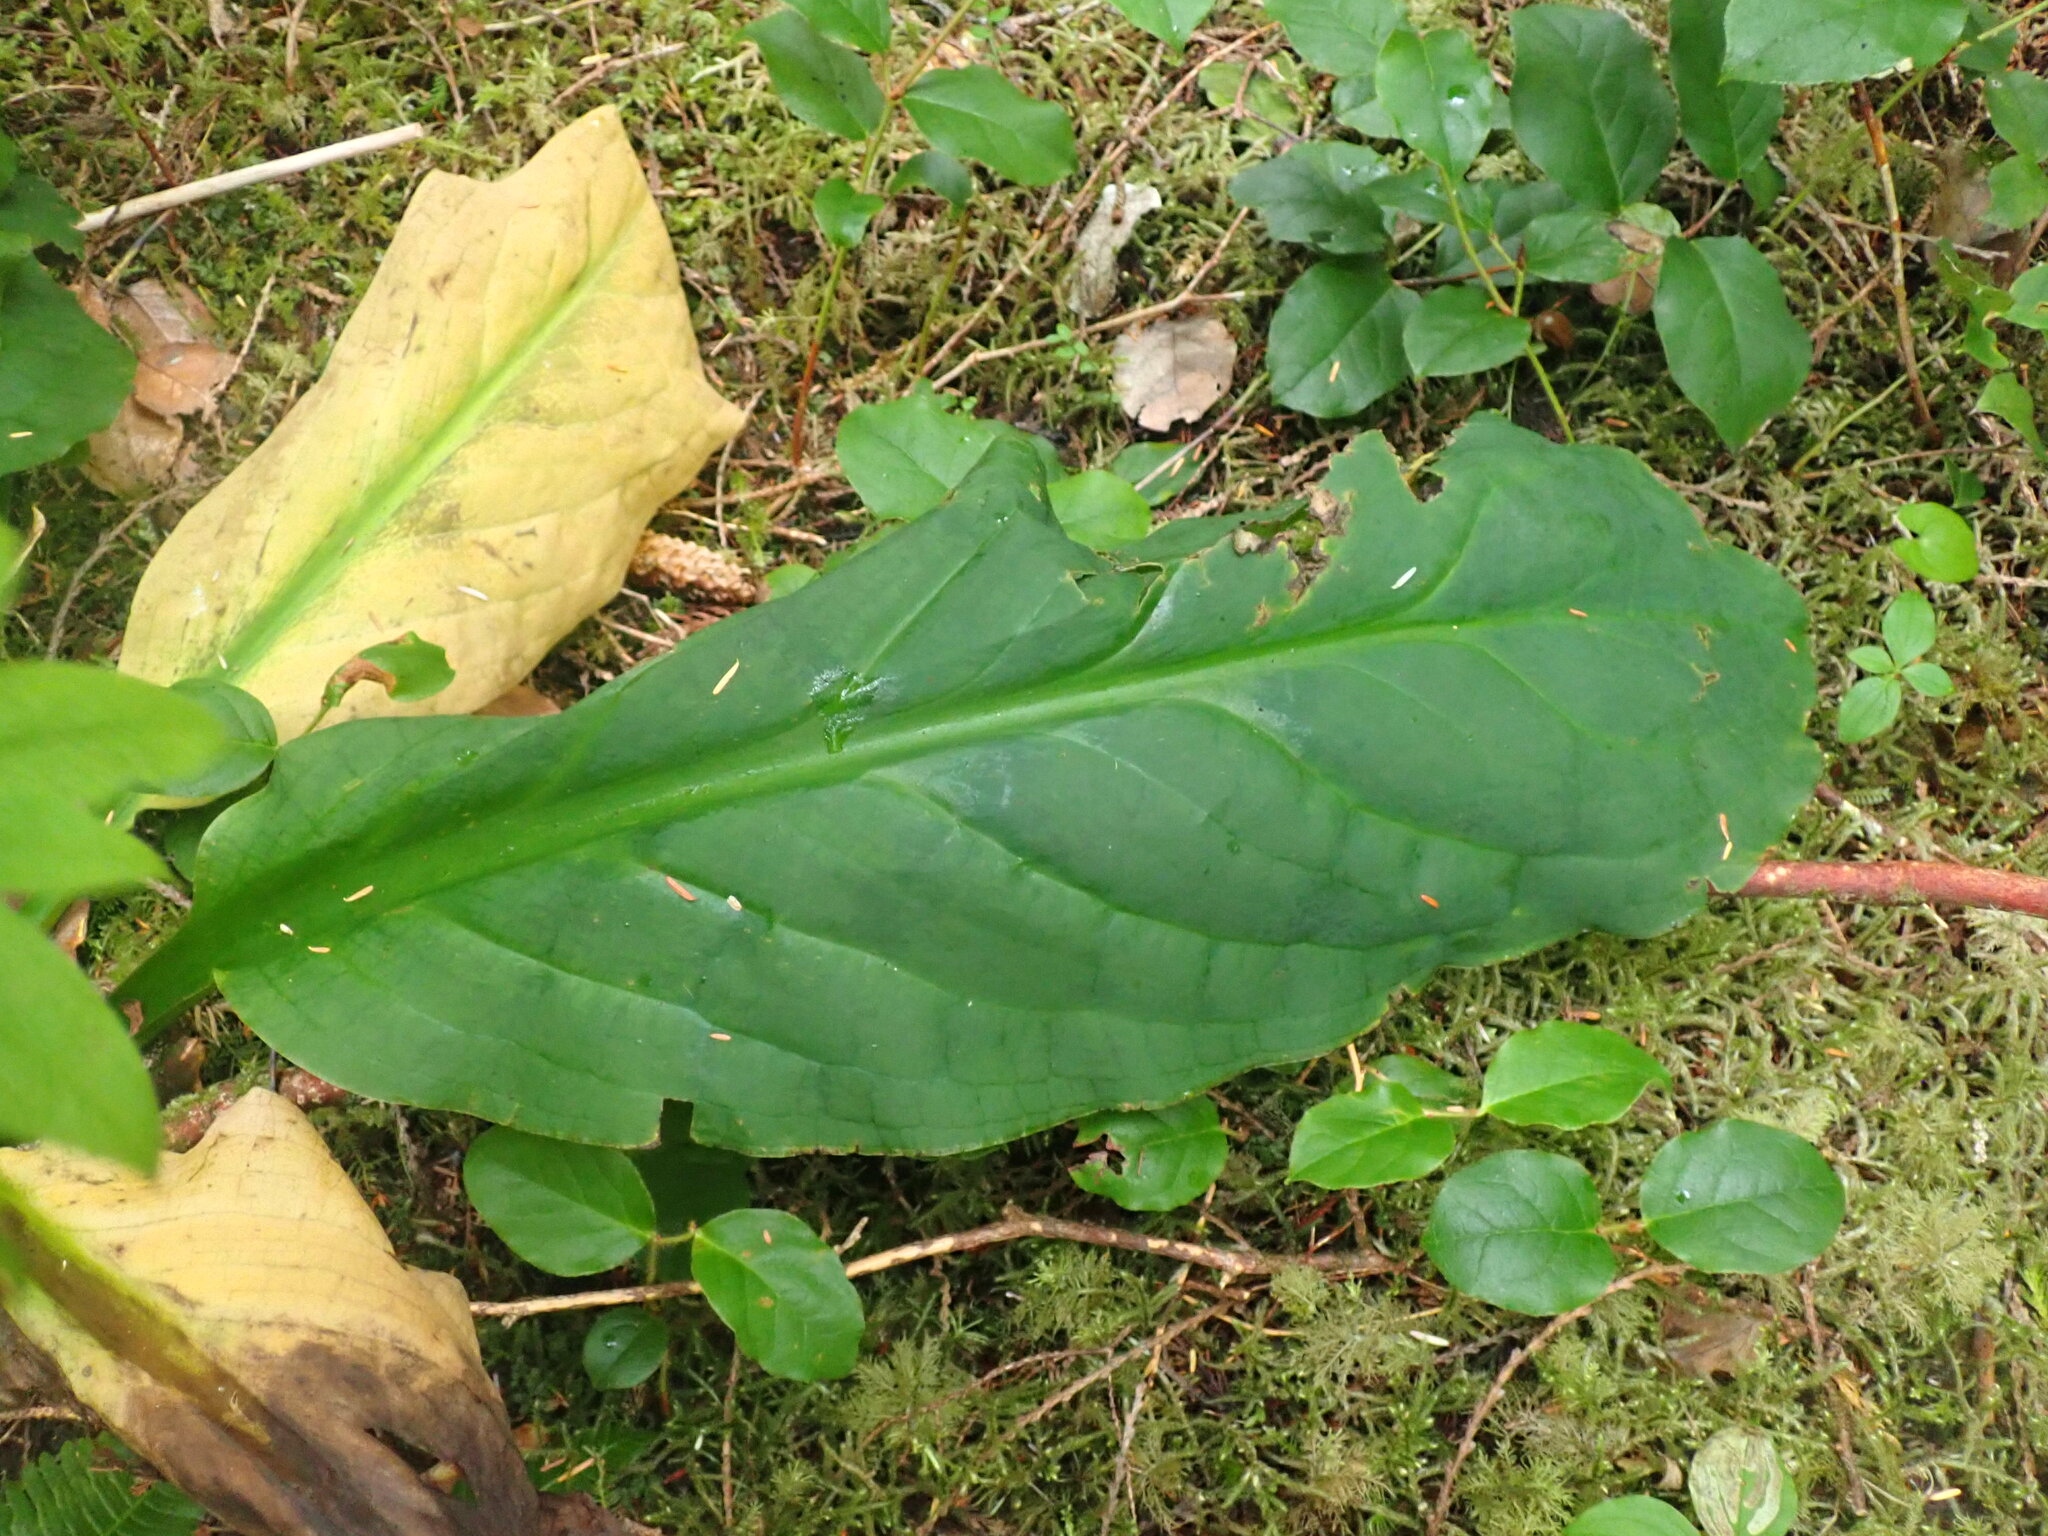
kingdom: Plantae
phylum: Tracheophyta
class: Liliopsida
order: Alismatales
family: Araceae
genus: Lysichiton
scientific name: Lysichiton americanus
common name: American skunk cabbage
